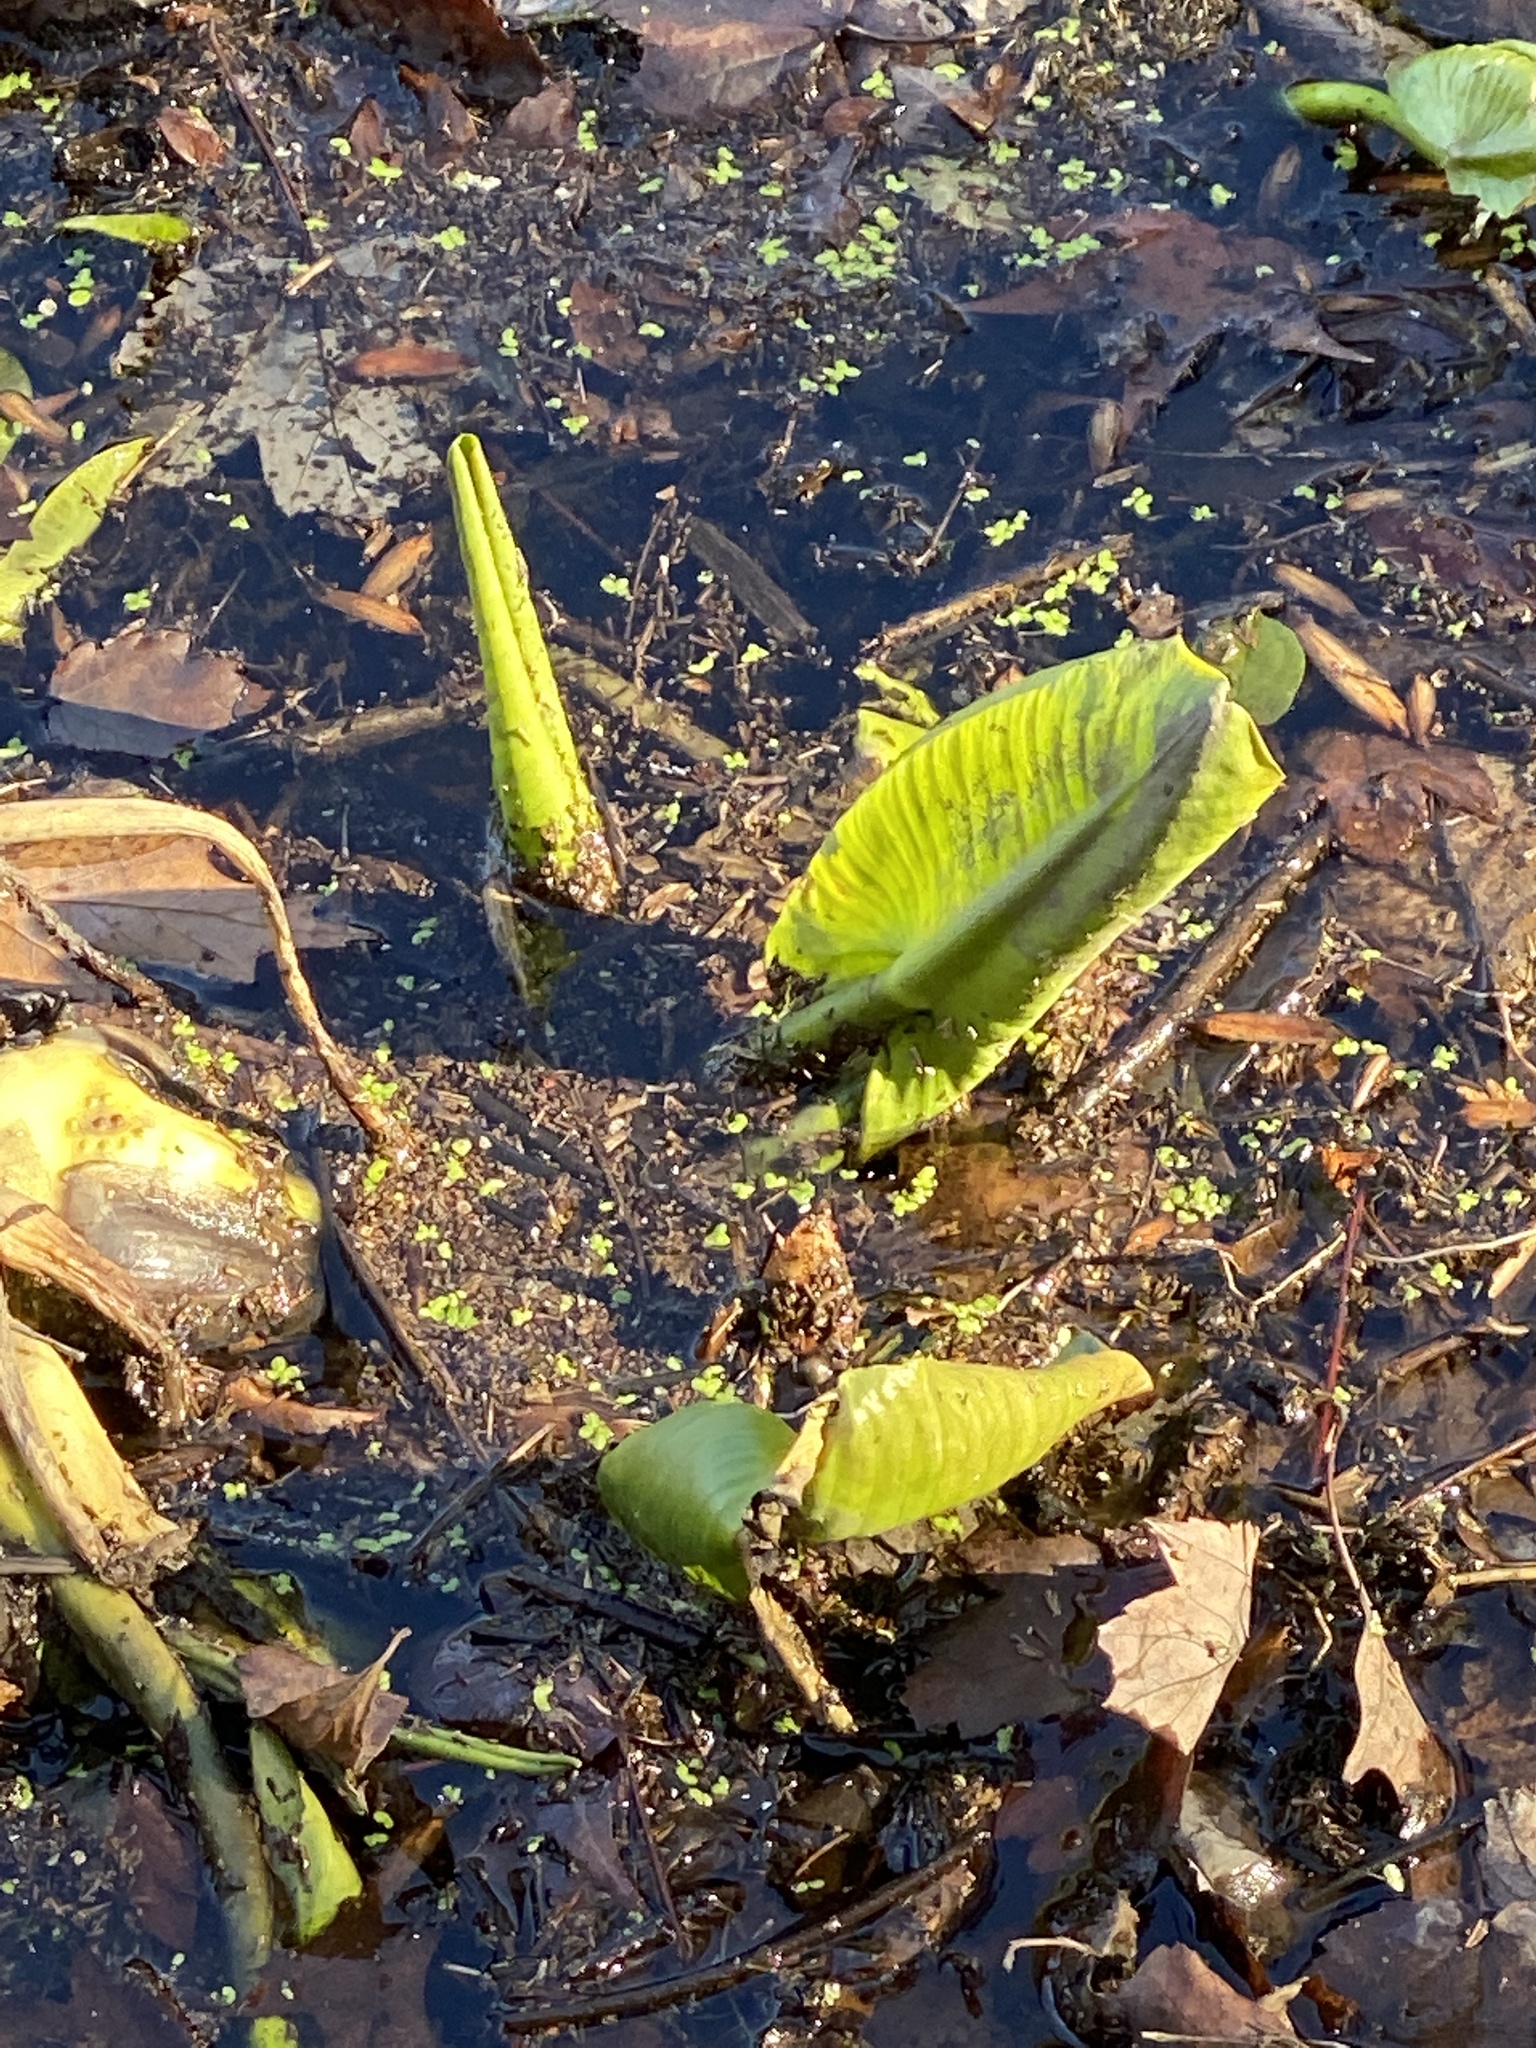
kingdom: Plantae
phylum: Tracheophyta
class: Magnoliopsida
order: Nymphaeales
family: Nymphaeaceae
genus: Nuphar
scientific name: Nuphar advena
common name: Spatter-dock
